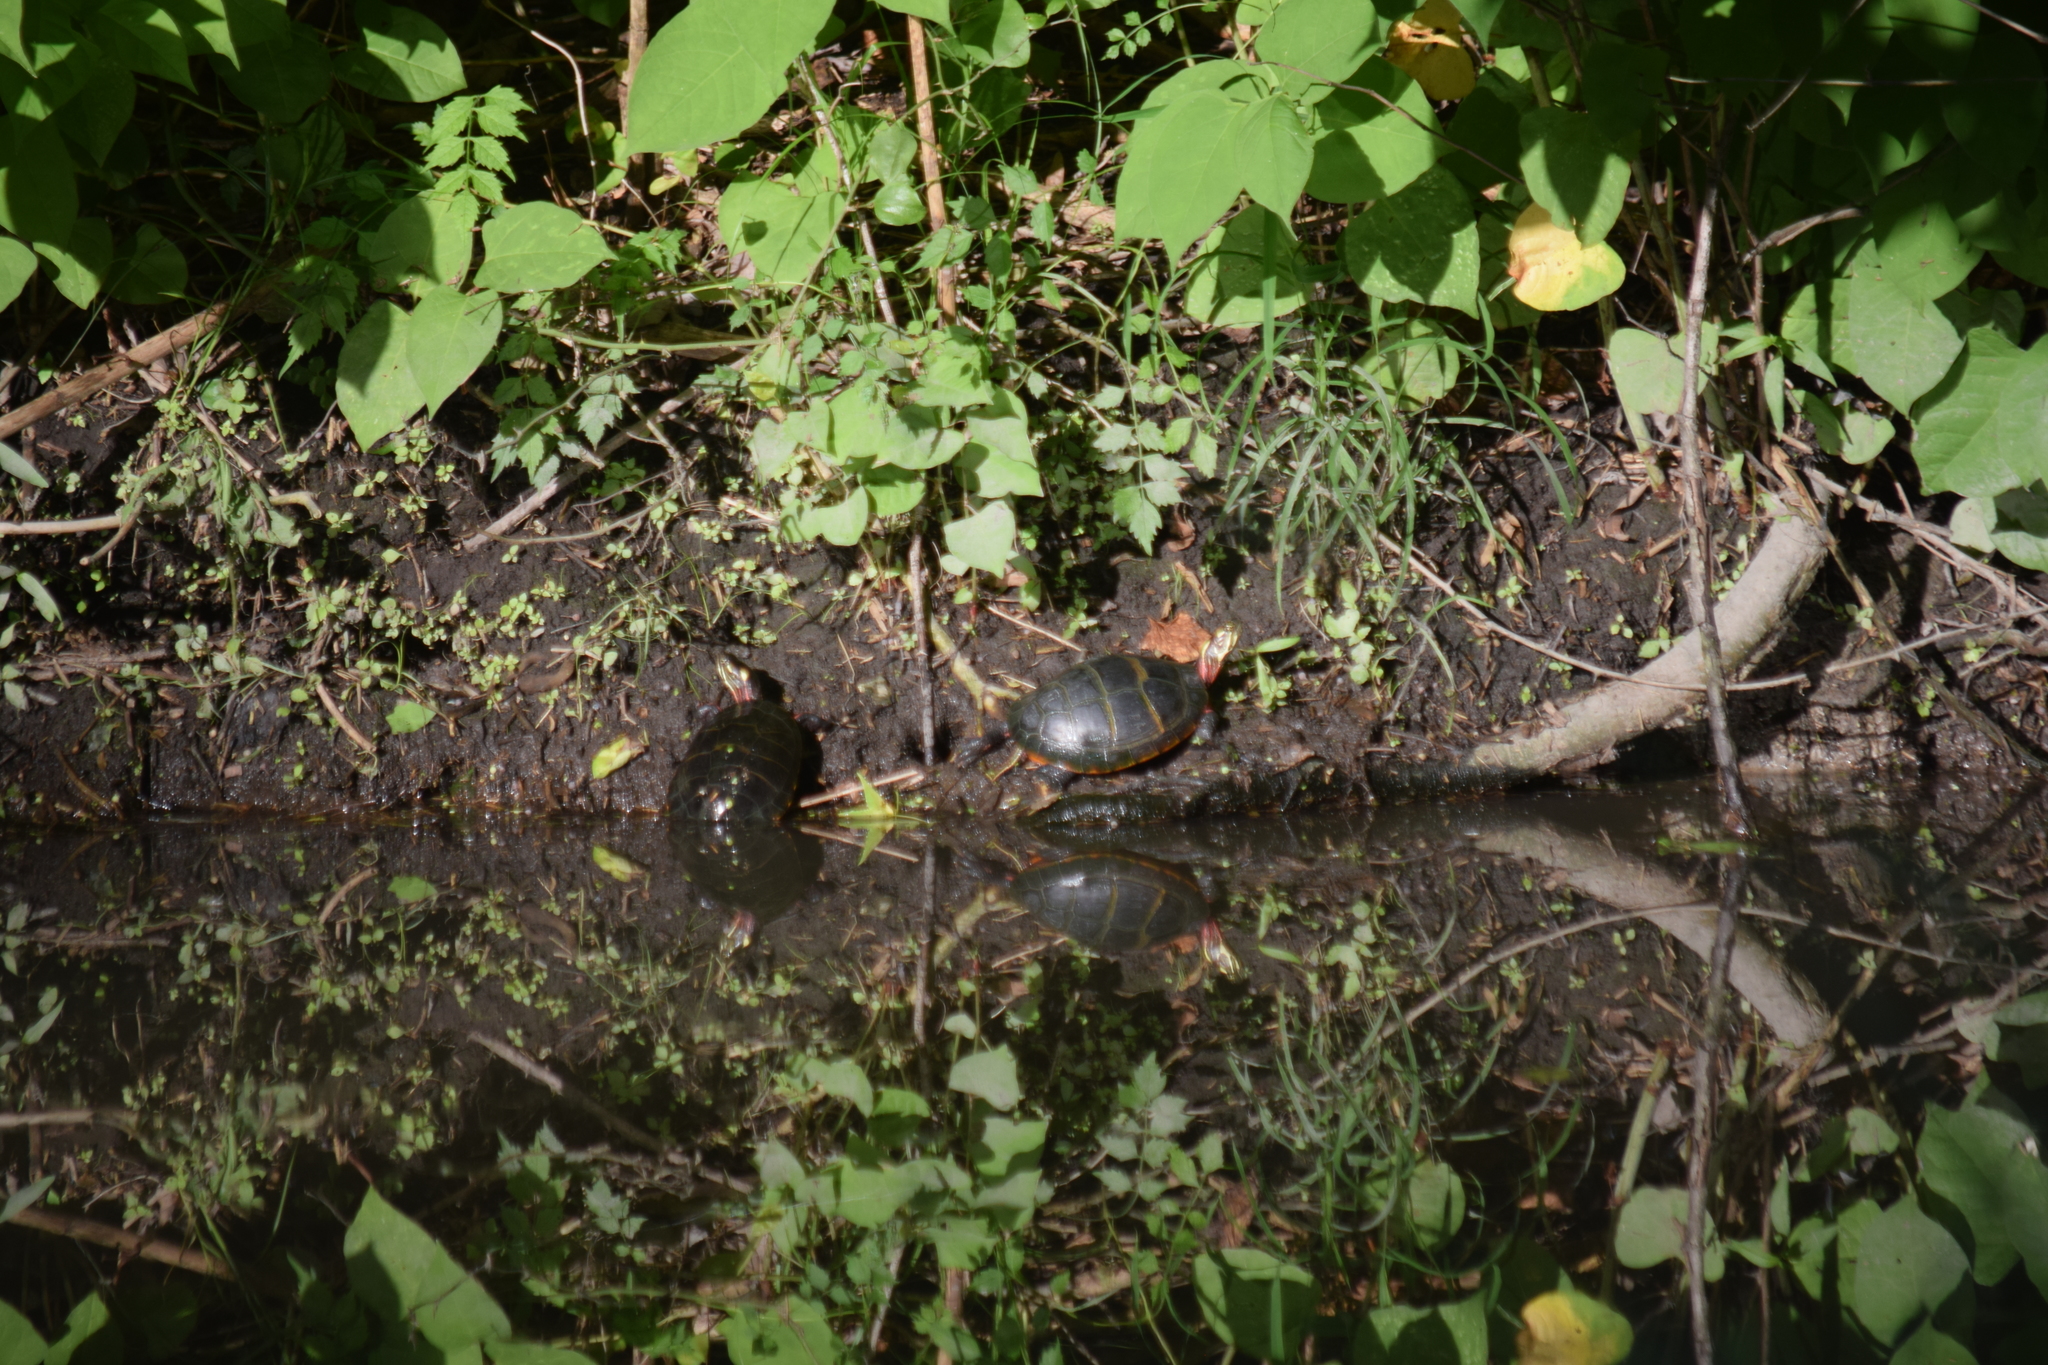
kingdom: Animalia
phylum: Chordata
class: Testudines
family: Emydidae
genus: Chrysemys
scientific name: Chrysemys picta
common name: Painted turtle
